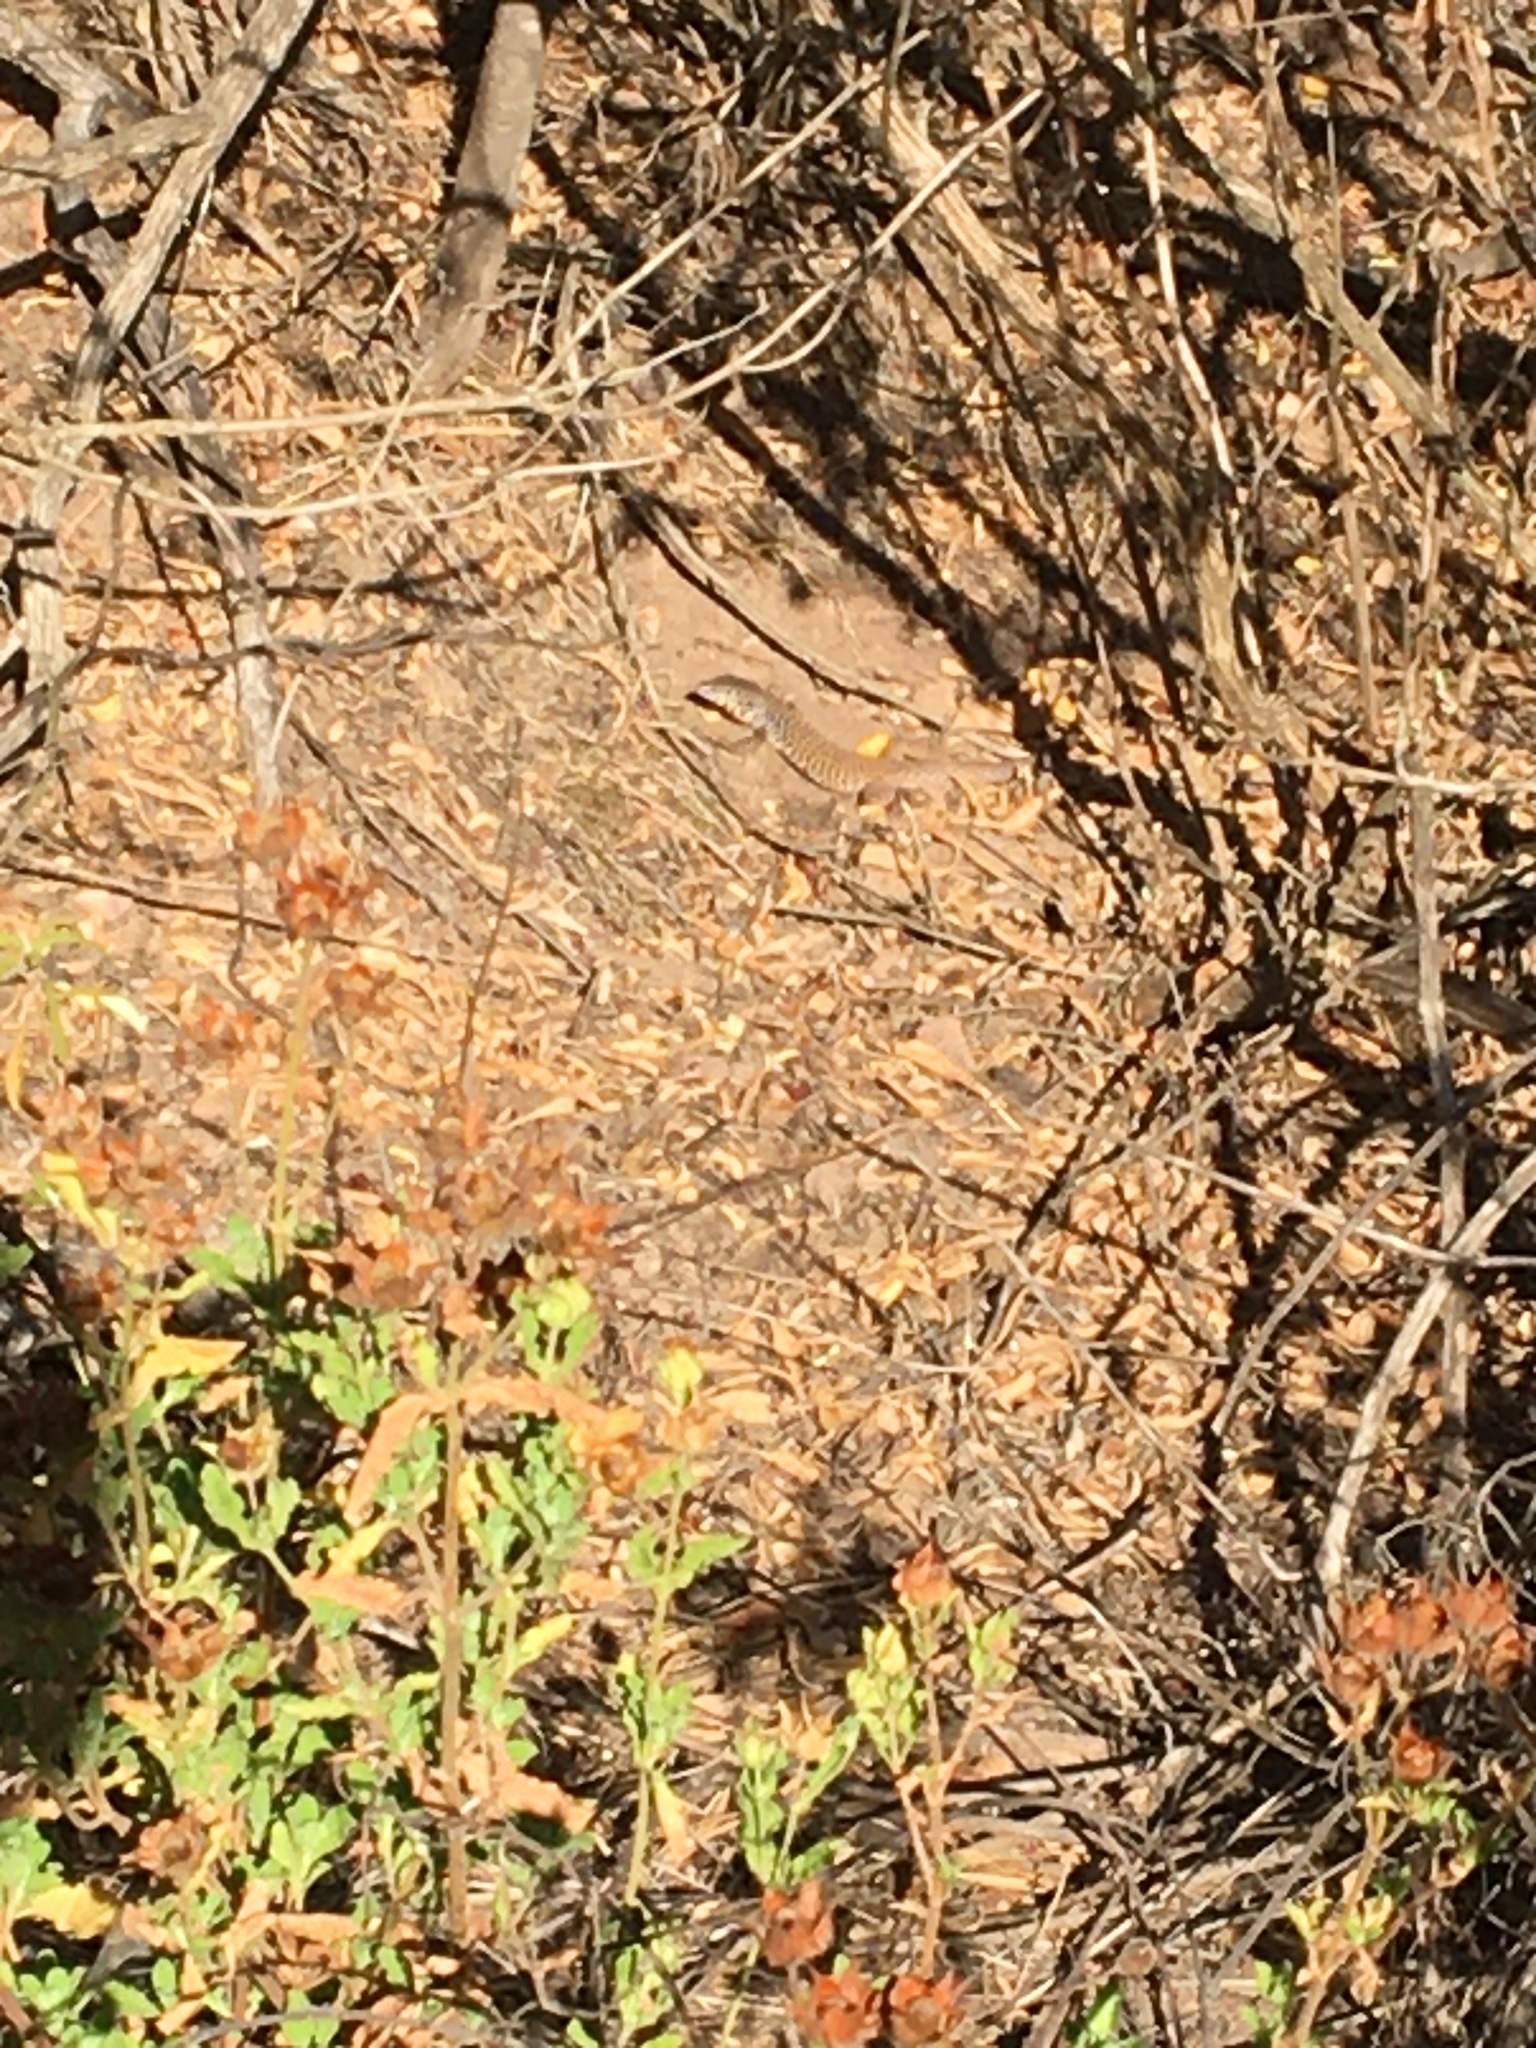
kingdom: Animalia
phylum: Chordata
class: Squamata
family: Teiidae
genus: Aspidoscelis
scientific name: Aspidoscelis tigris
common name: Tiger whiptail
